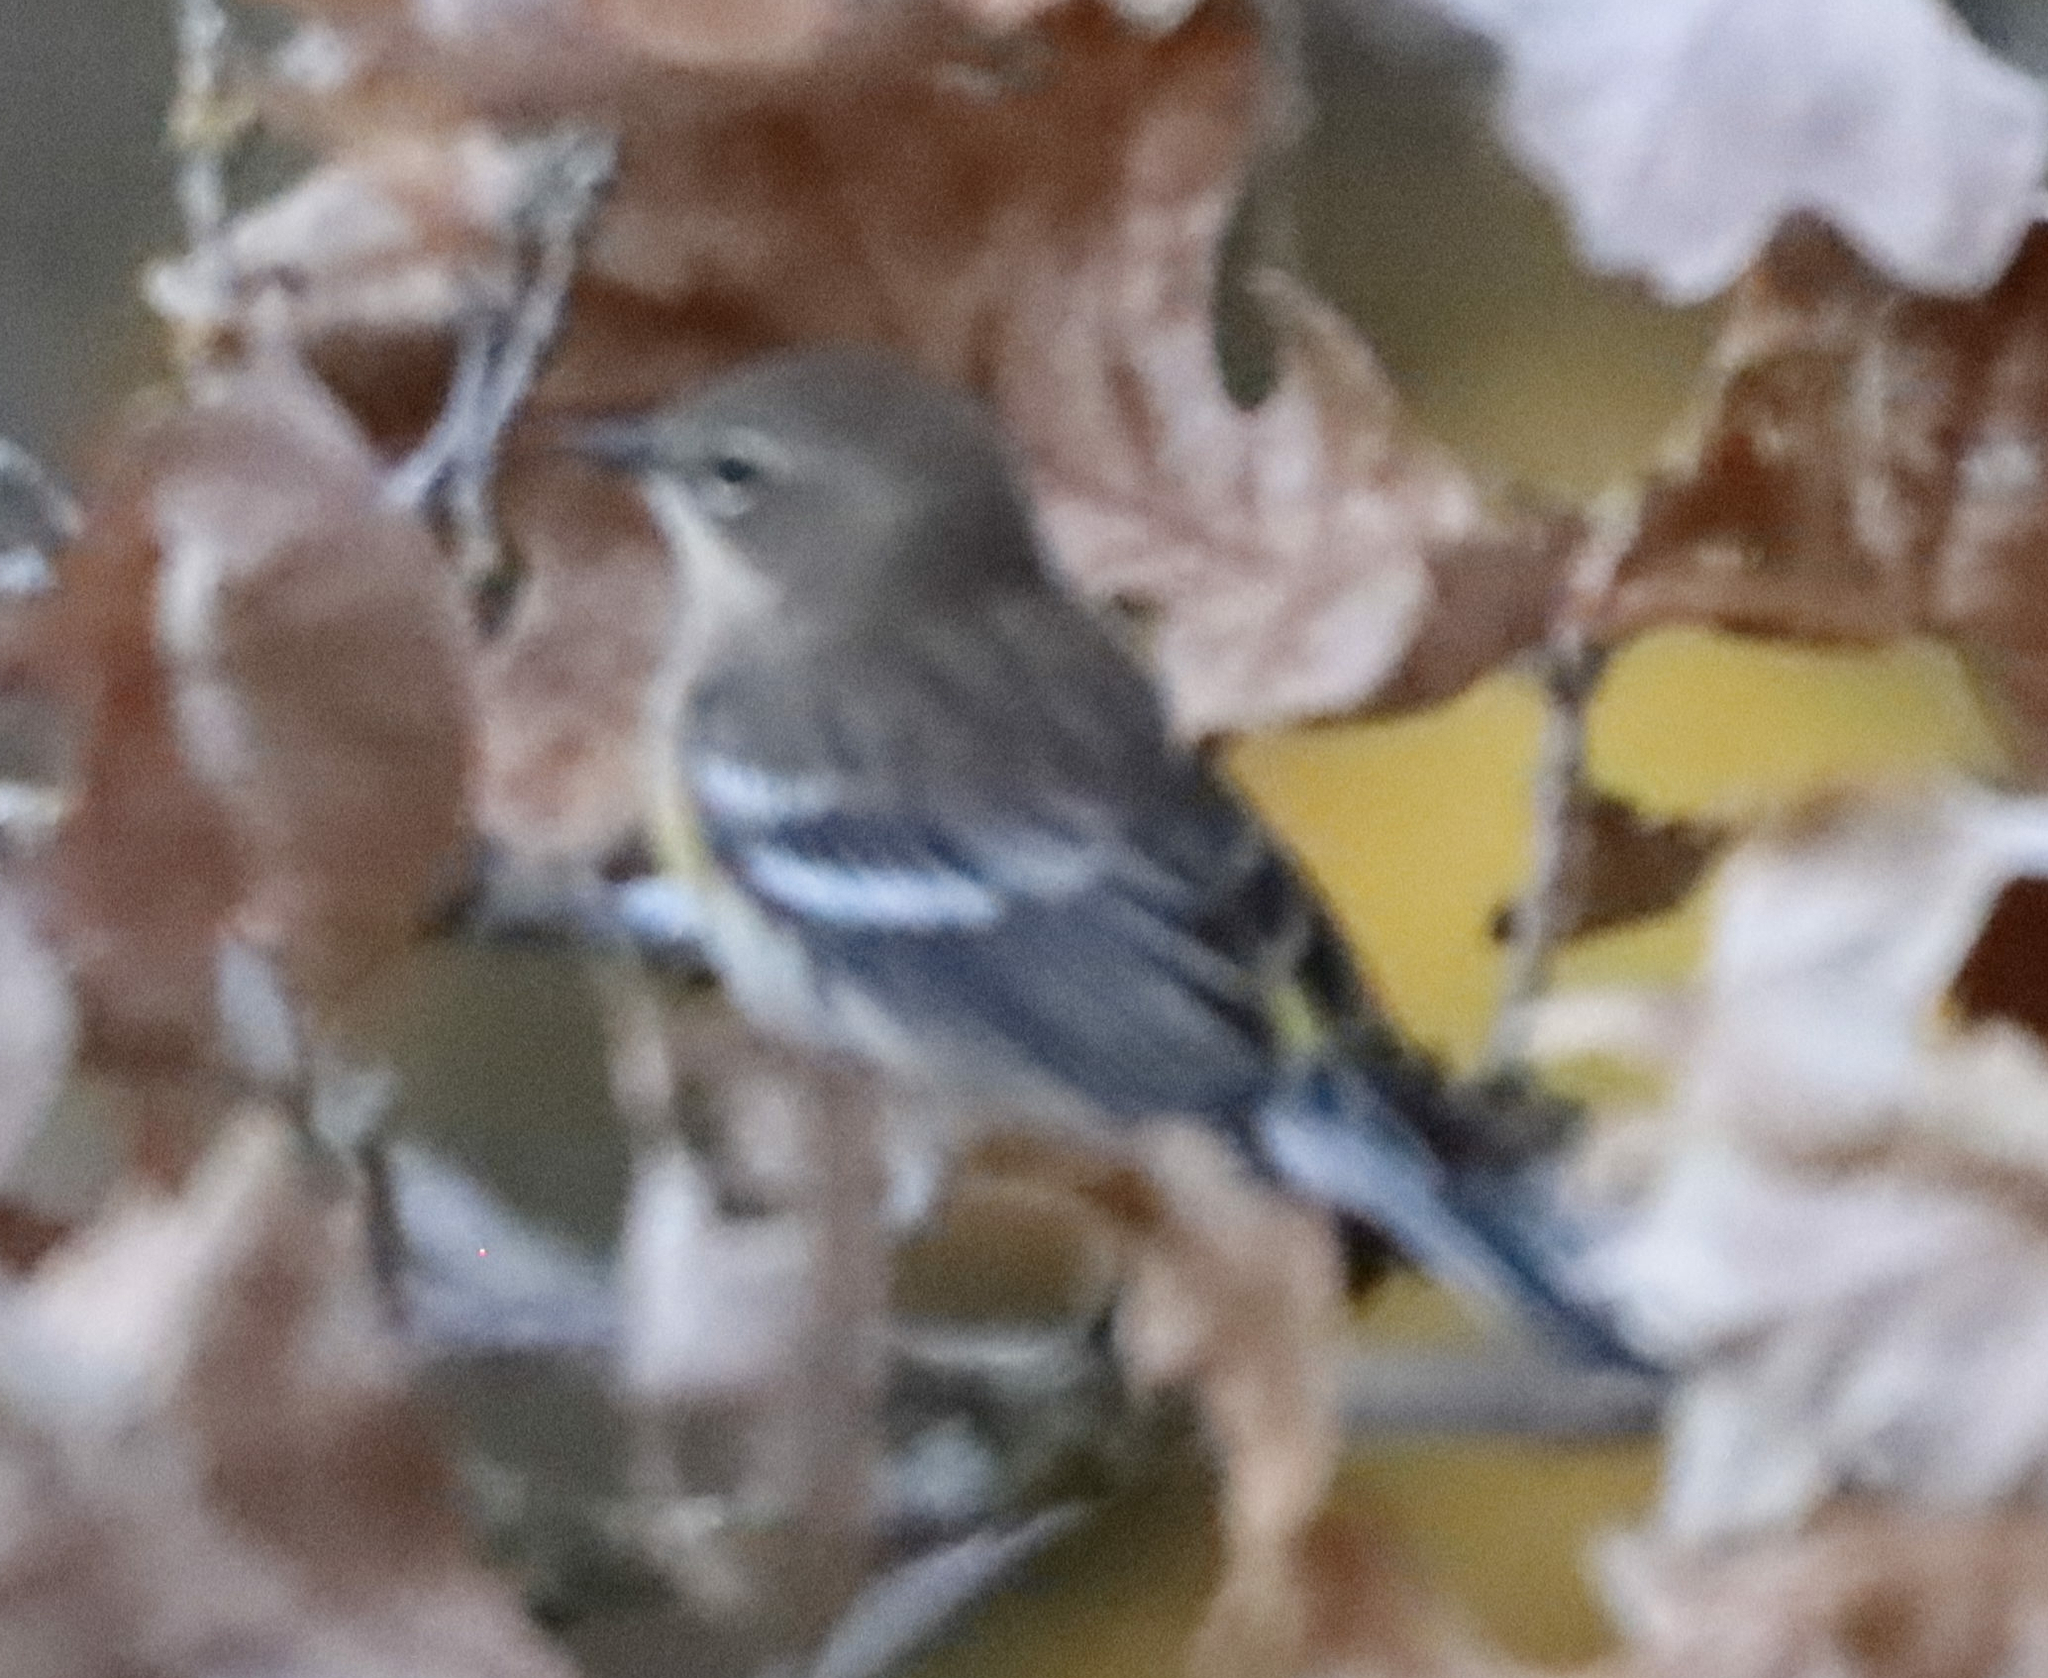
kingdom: Animalia
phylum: Chordata
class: Aves
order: Passeriformes
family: Parulidae
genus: Setophaga
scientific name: Setophaga coronata
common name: Myrtle warbler
